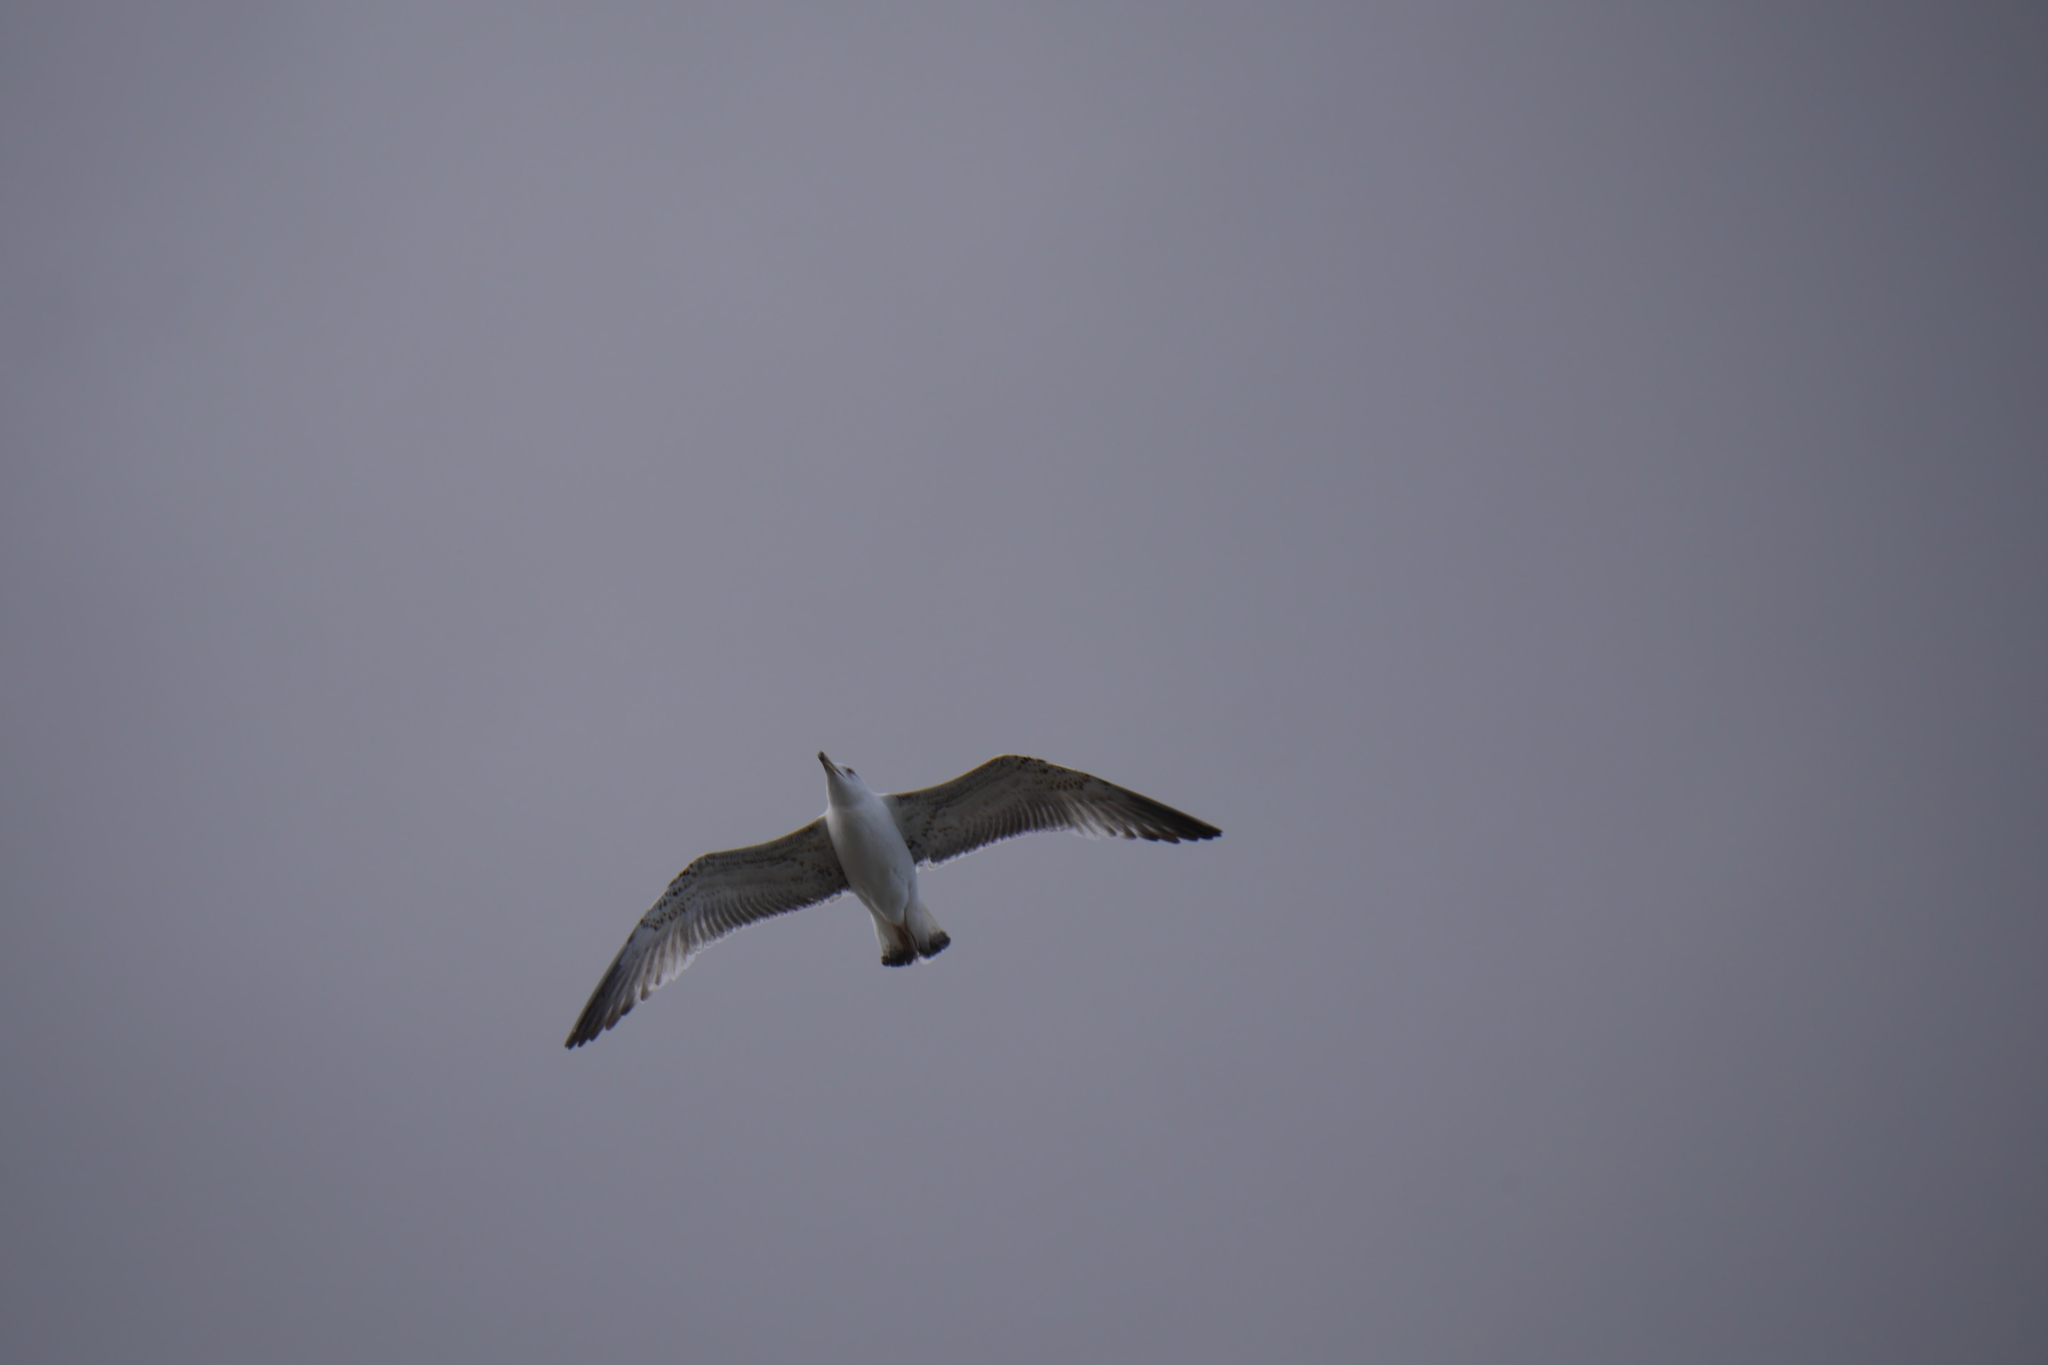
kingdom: Animalia
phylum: Chordata
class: Aves
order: Charadriiformes
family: Laridae
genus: Larus
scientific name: Larus michahellis
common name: Yellow-legged gull
